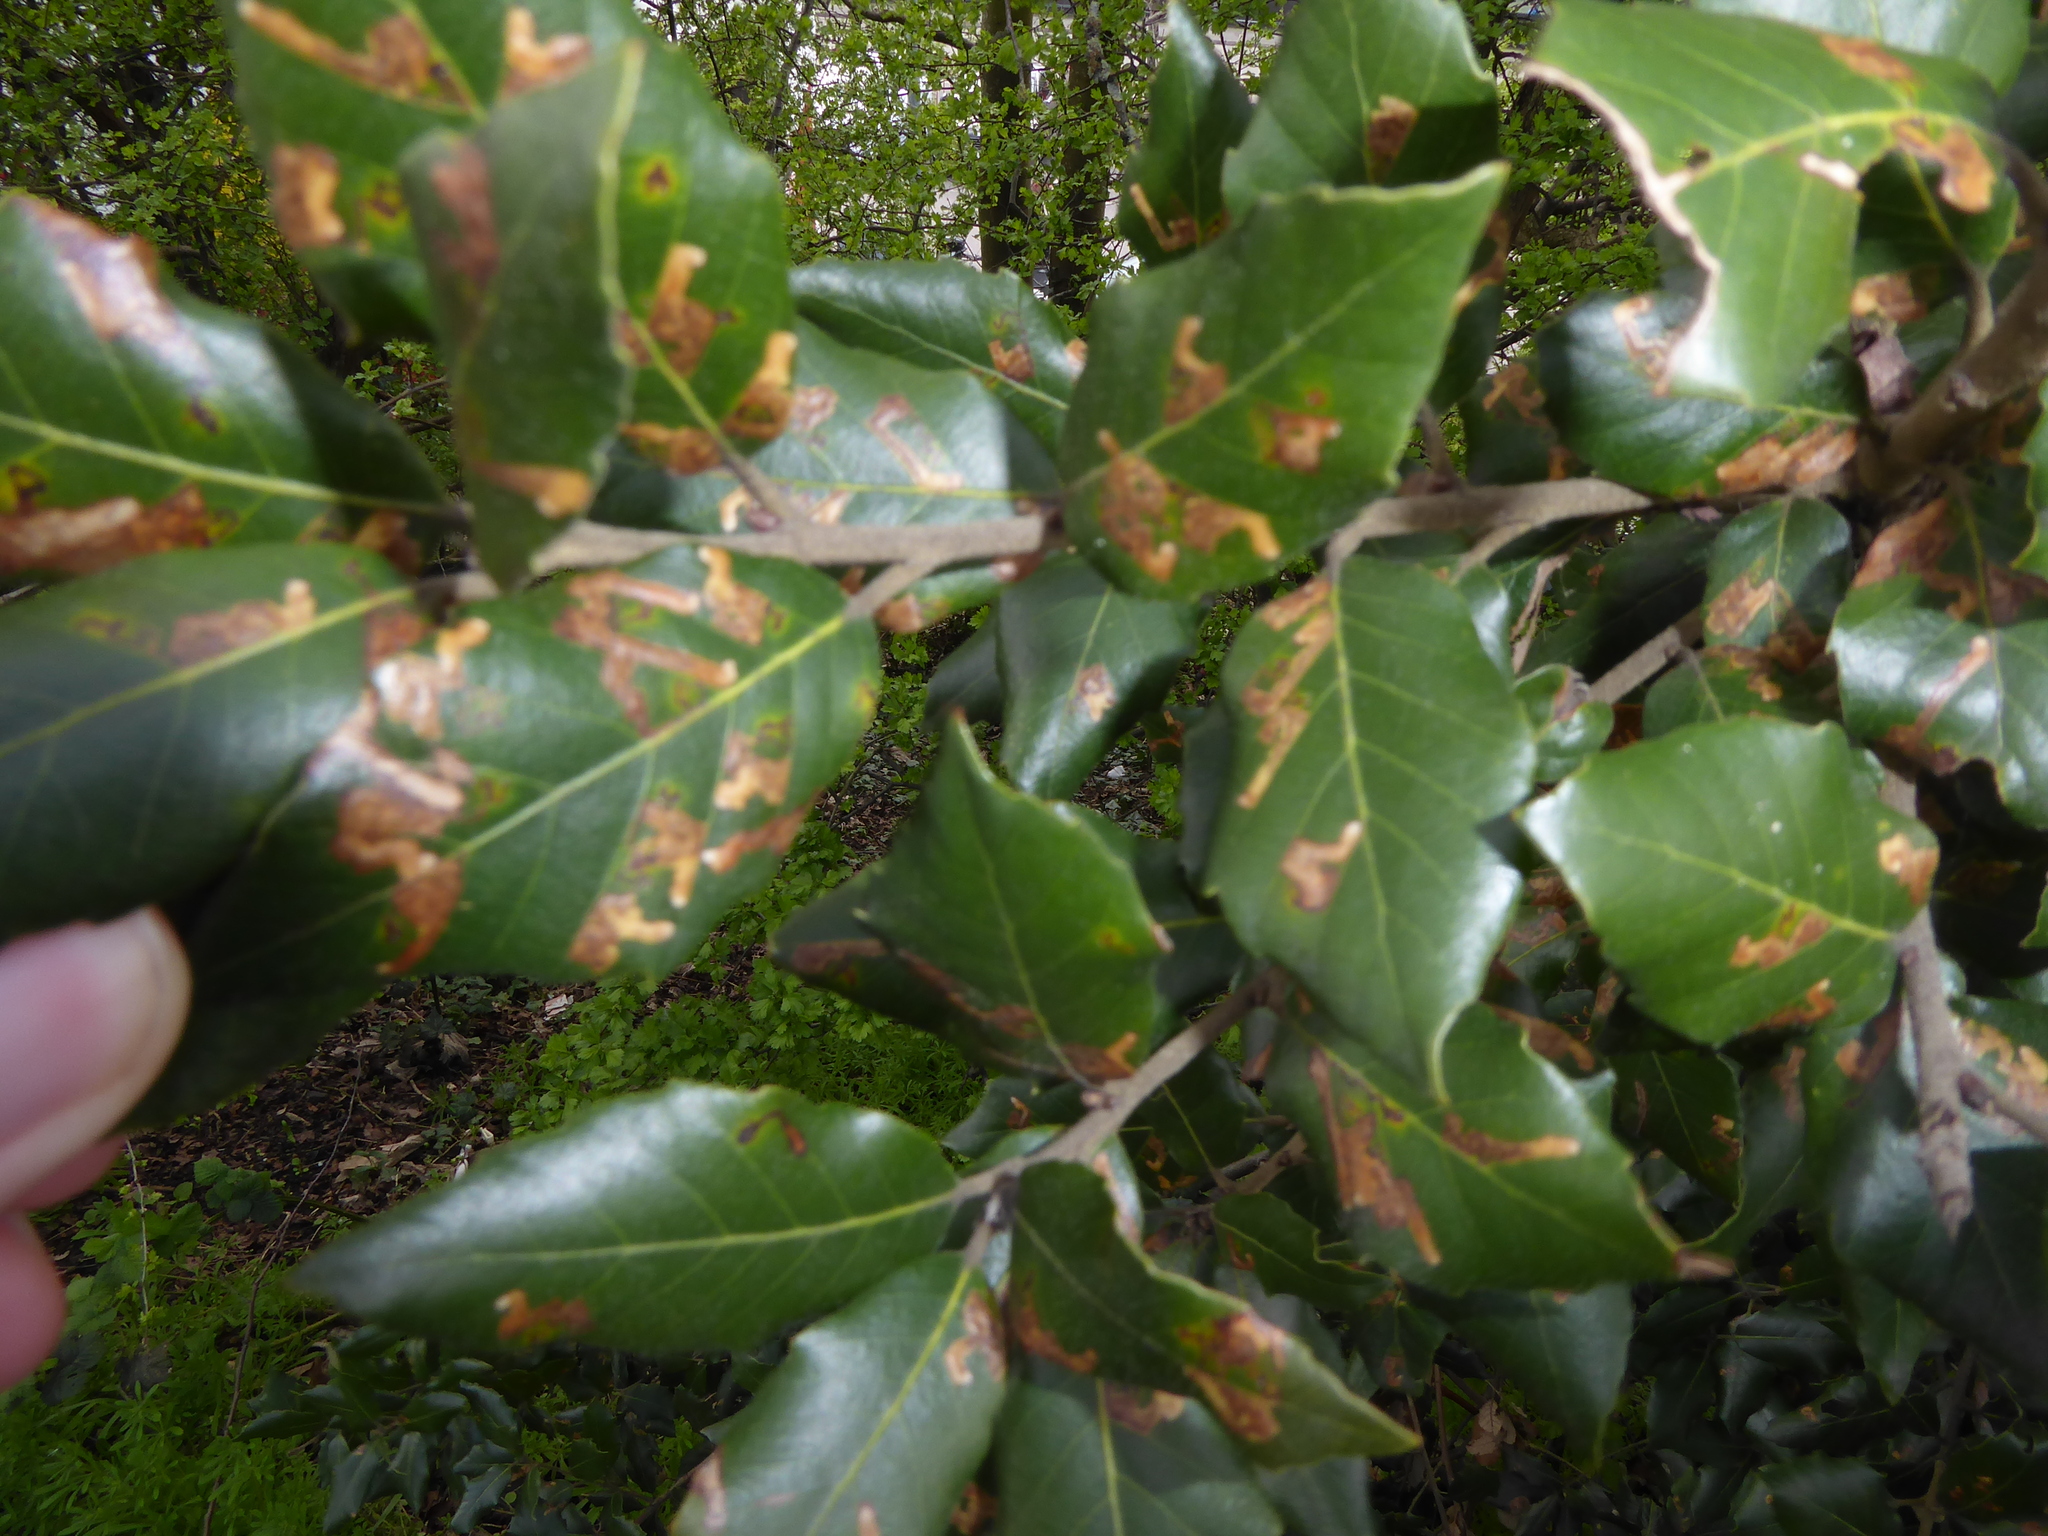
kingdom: Plantae
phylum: Tracheophyta
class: Magnoliopsida
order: Fagales
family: Fagaceae
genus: Quercus
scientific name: Quercus ilex
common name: Evergreen oak
